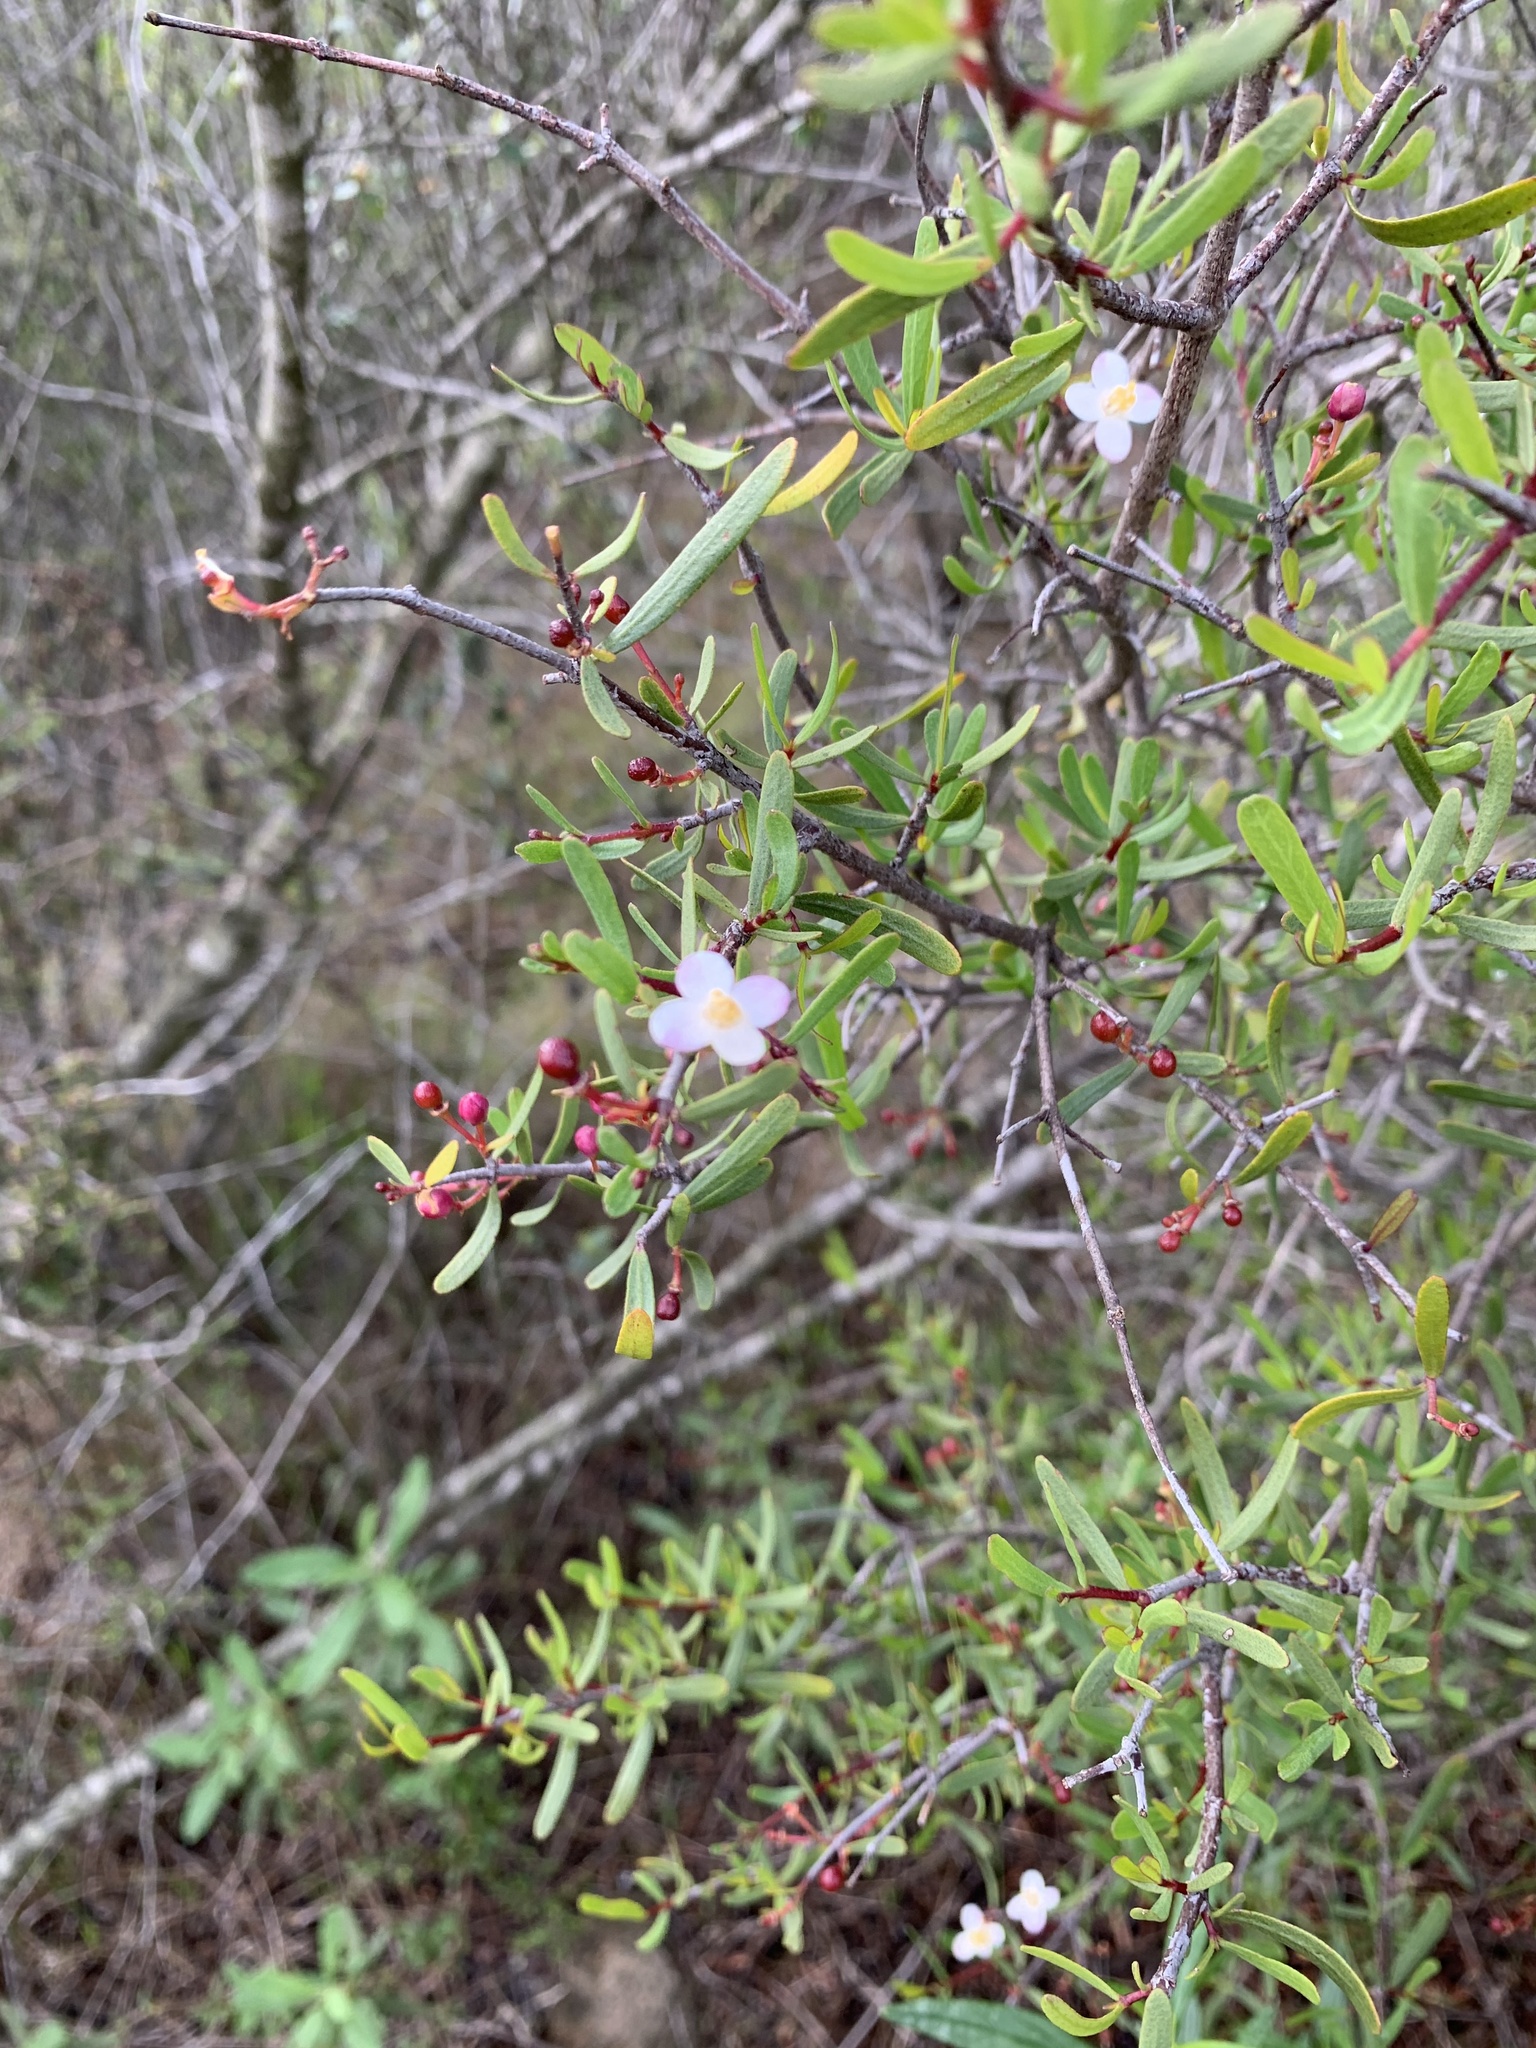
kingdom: Plantae
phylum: Tracheophyta
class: Magnoliopsida
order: Sapindales
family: Rutaceae
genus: Cneoridium
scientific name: Cneoridium dumosum
